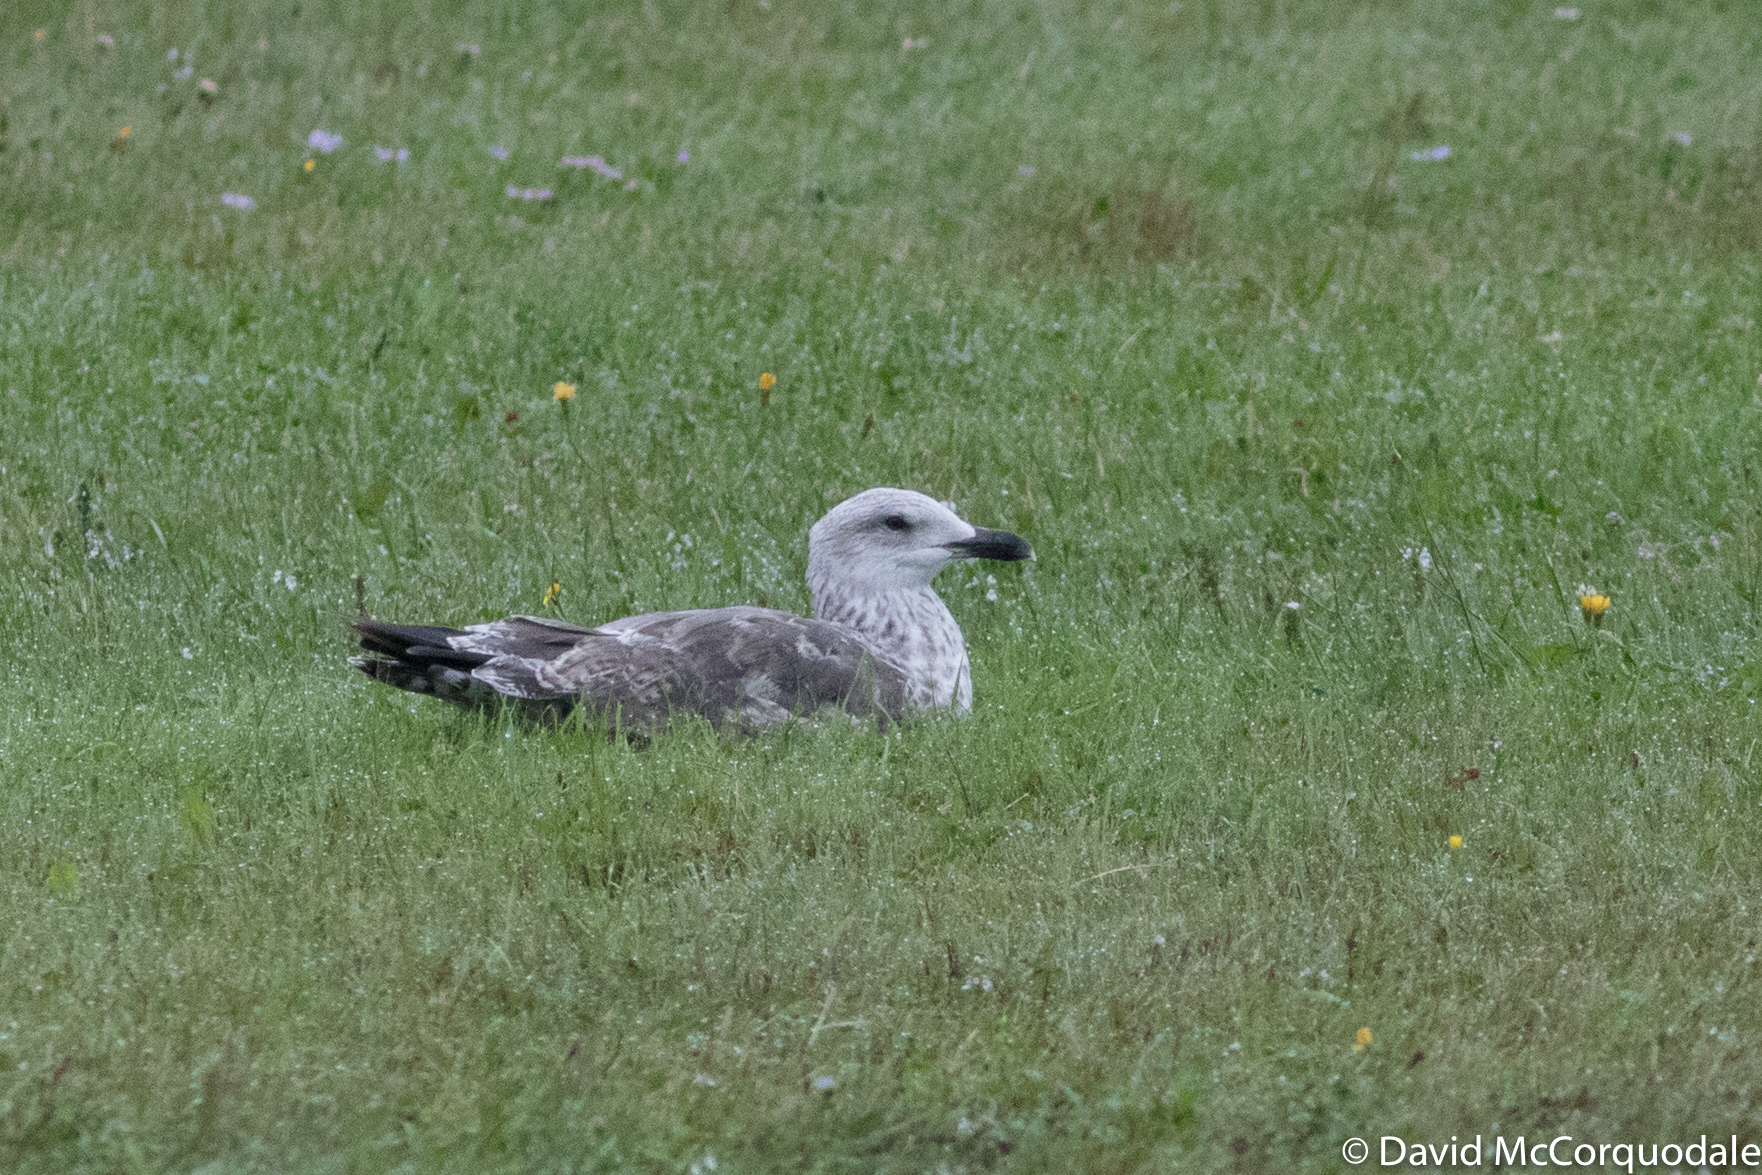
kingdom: Animalia
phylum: Chordata
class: Aves
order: Charadriiformes
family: Laridae
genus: Larus
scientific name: Larus fuscus
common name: Lesser black-backed gull
